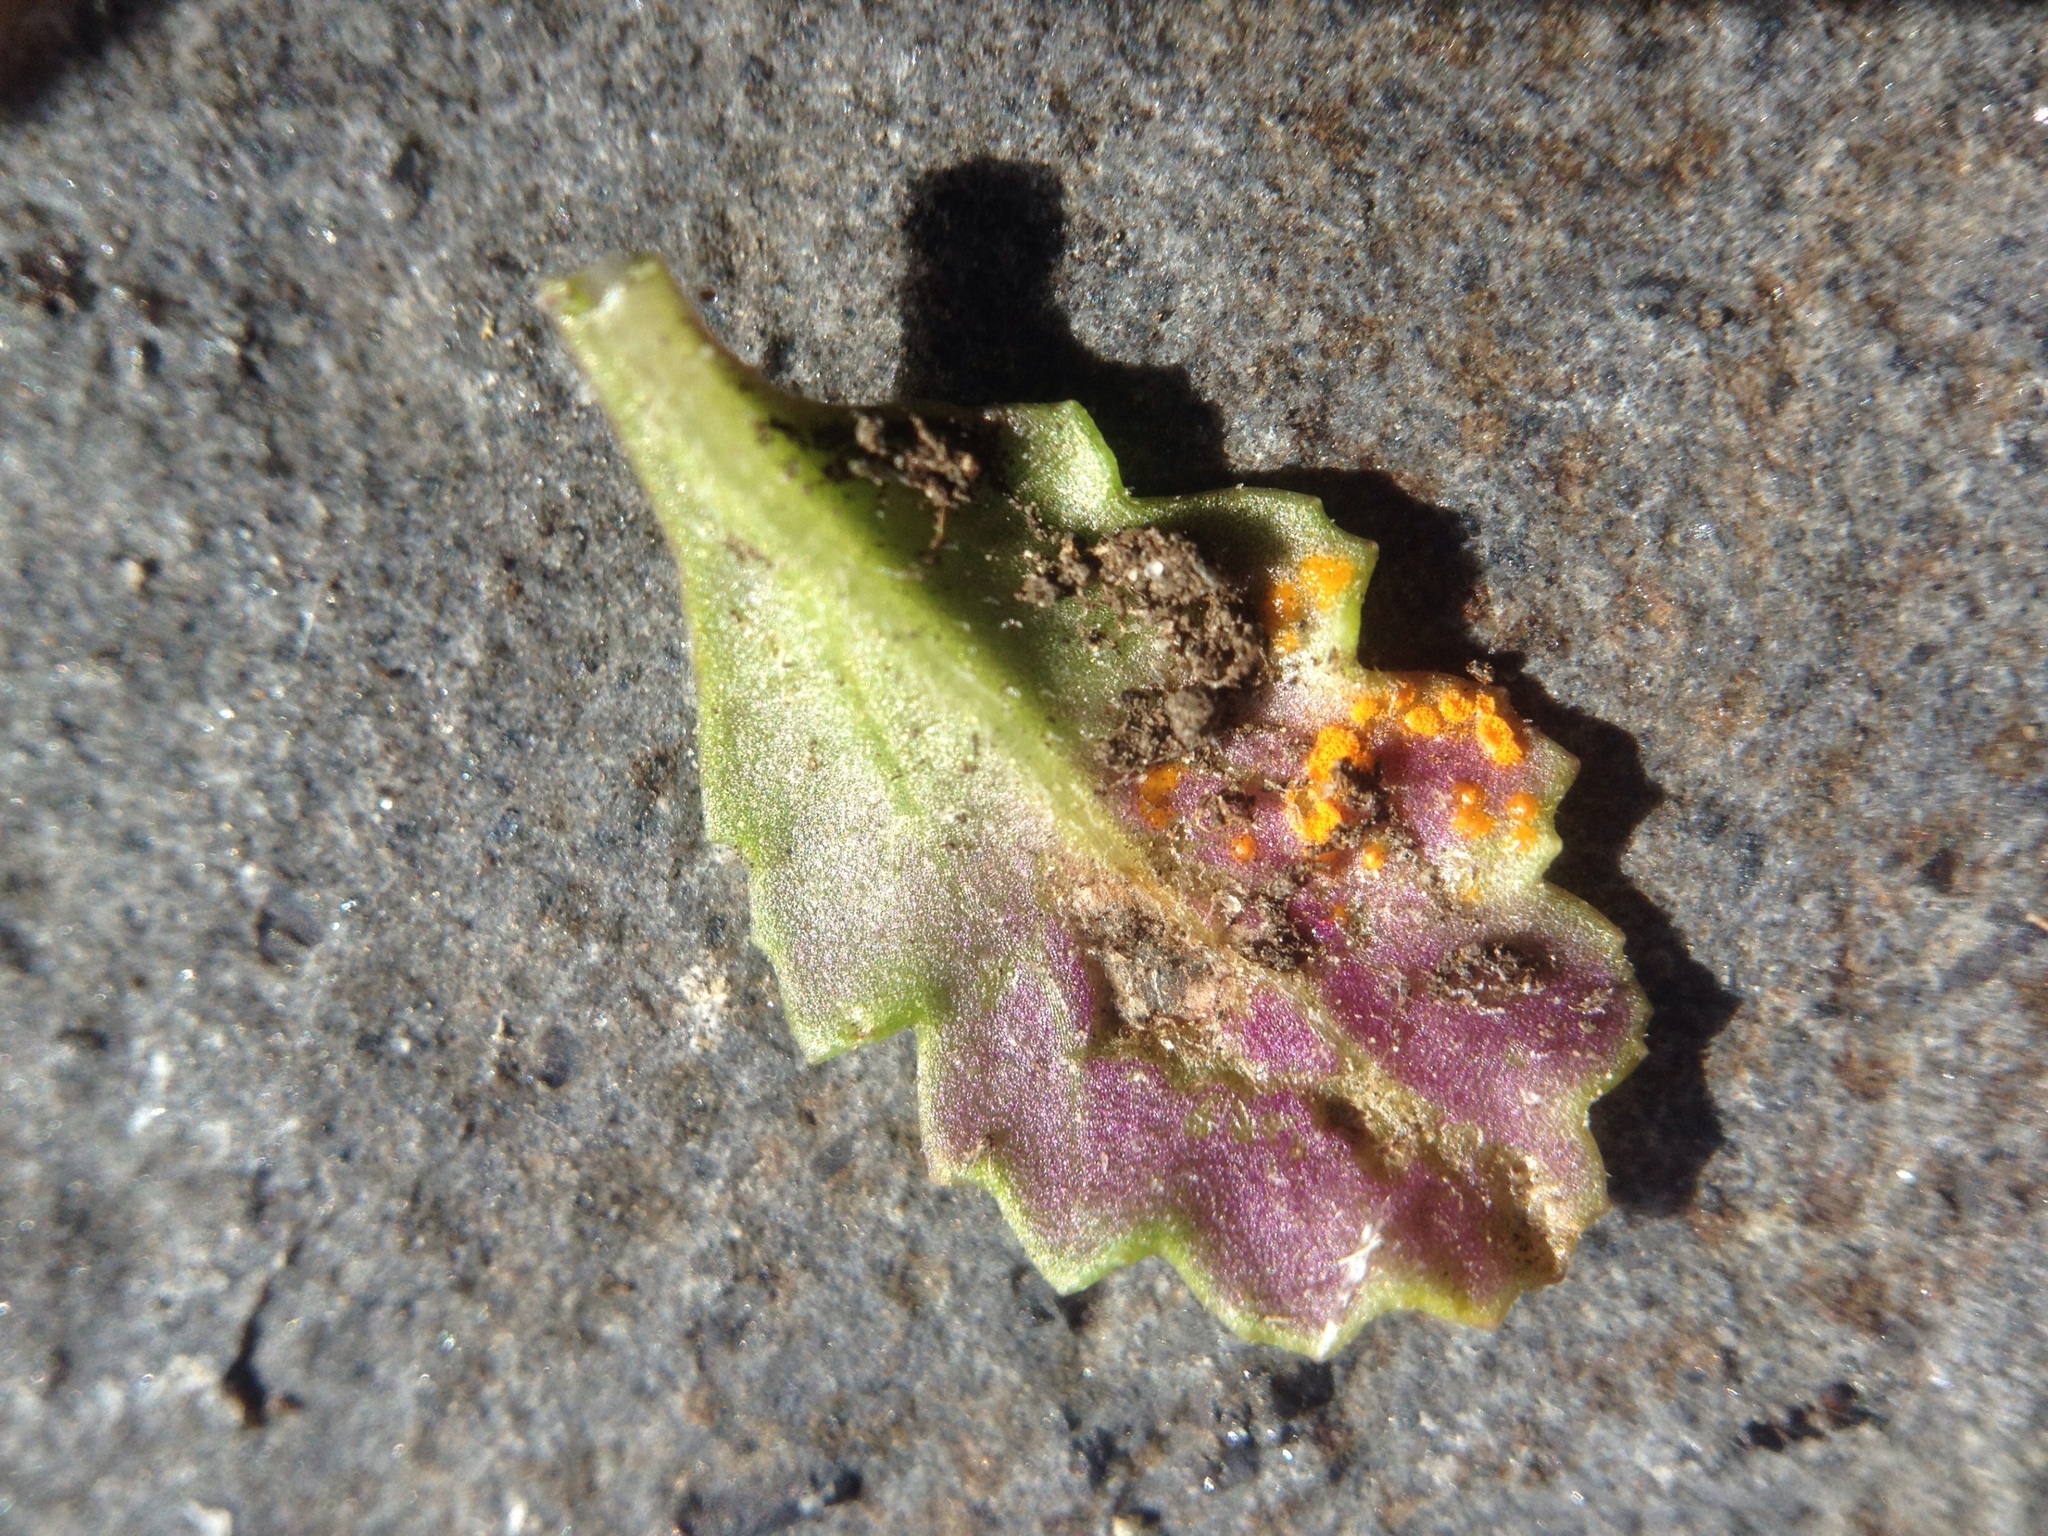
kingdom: Fungi
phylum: Basidiomycota
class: Pucciniomycetes
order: Pucciniales
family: Coleosporiaceae
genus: Coleosporium
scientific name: Coleosporium tussilaginis
